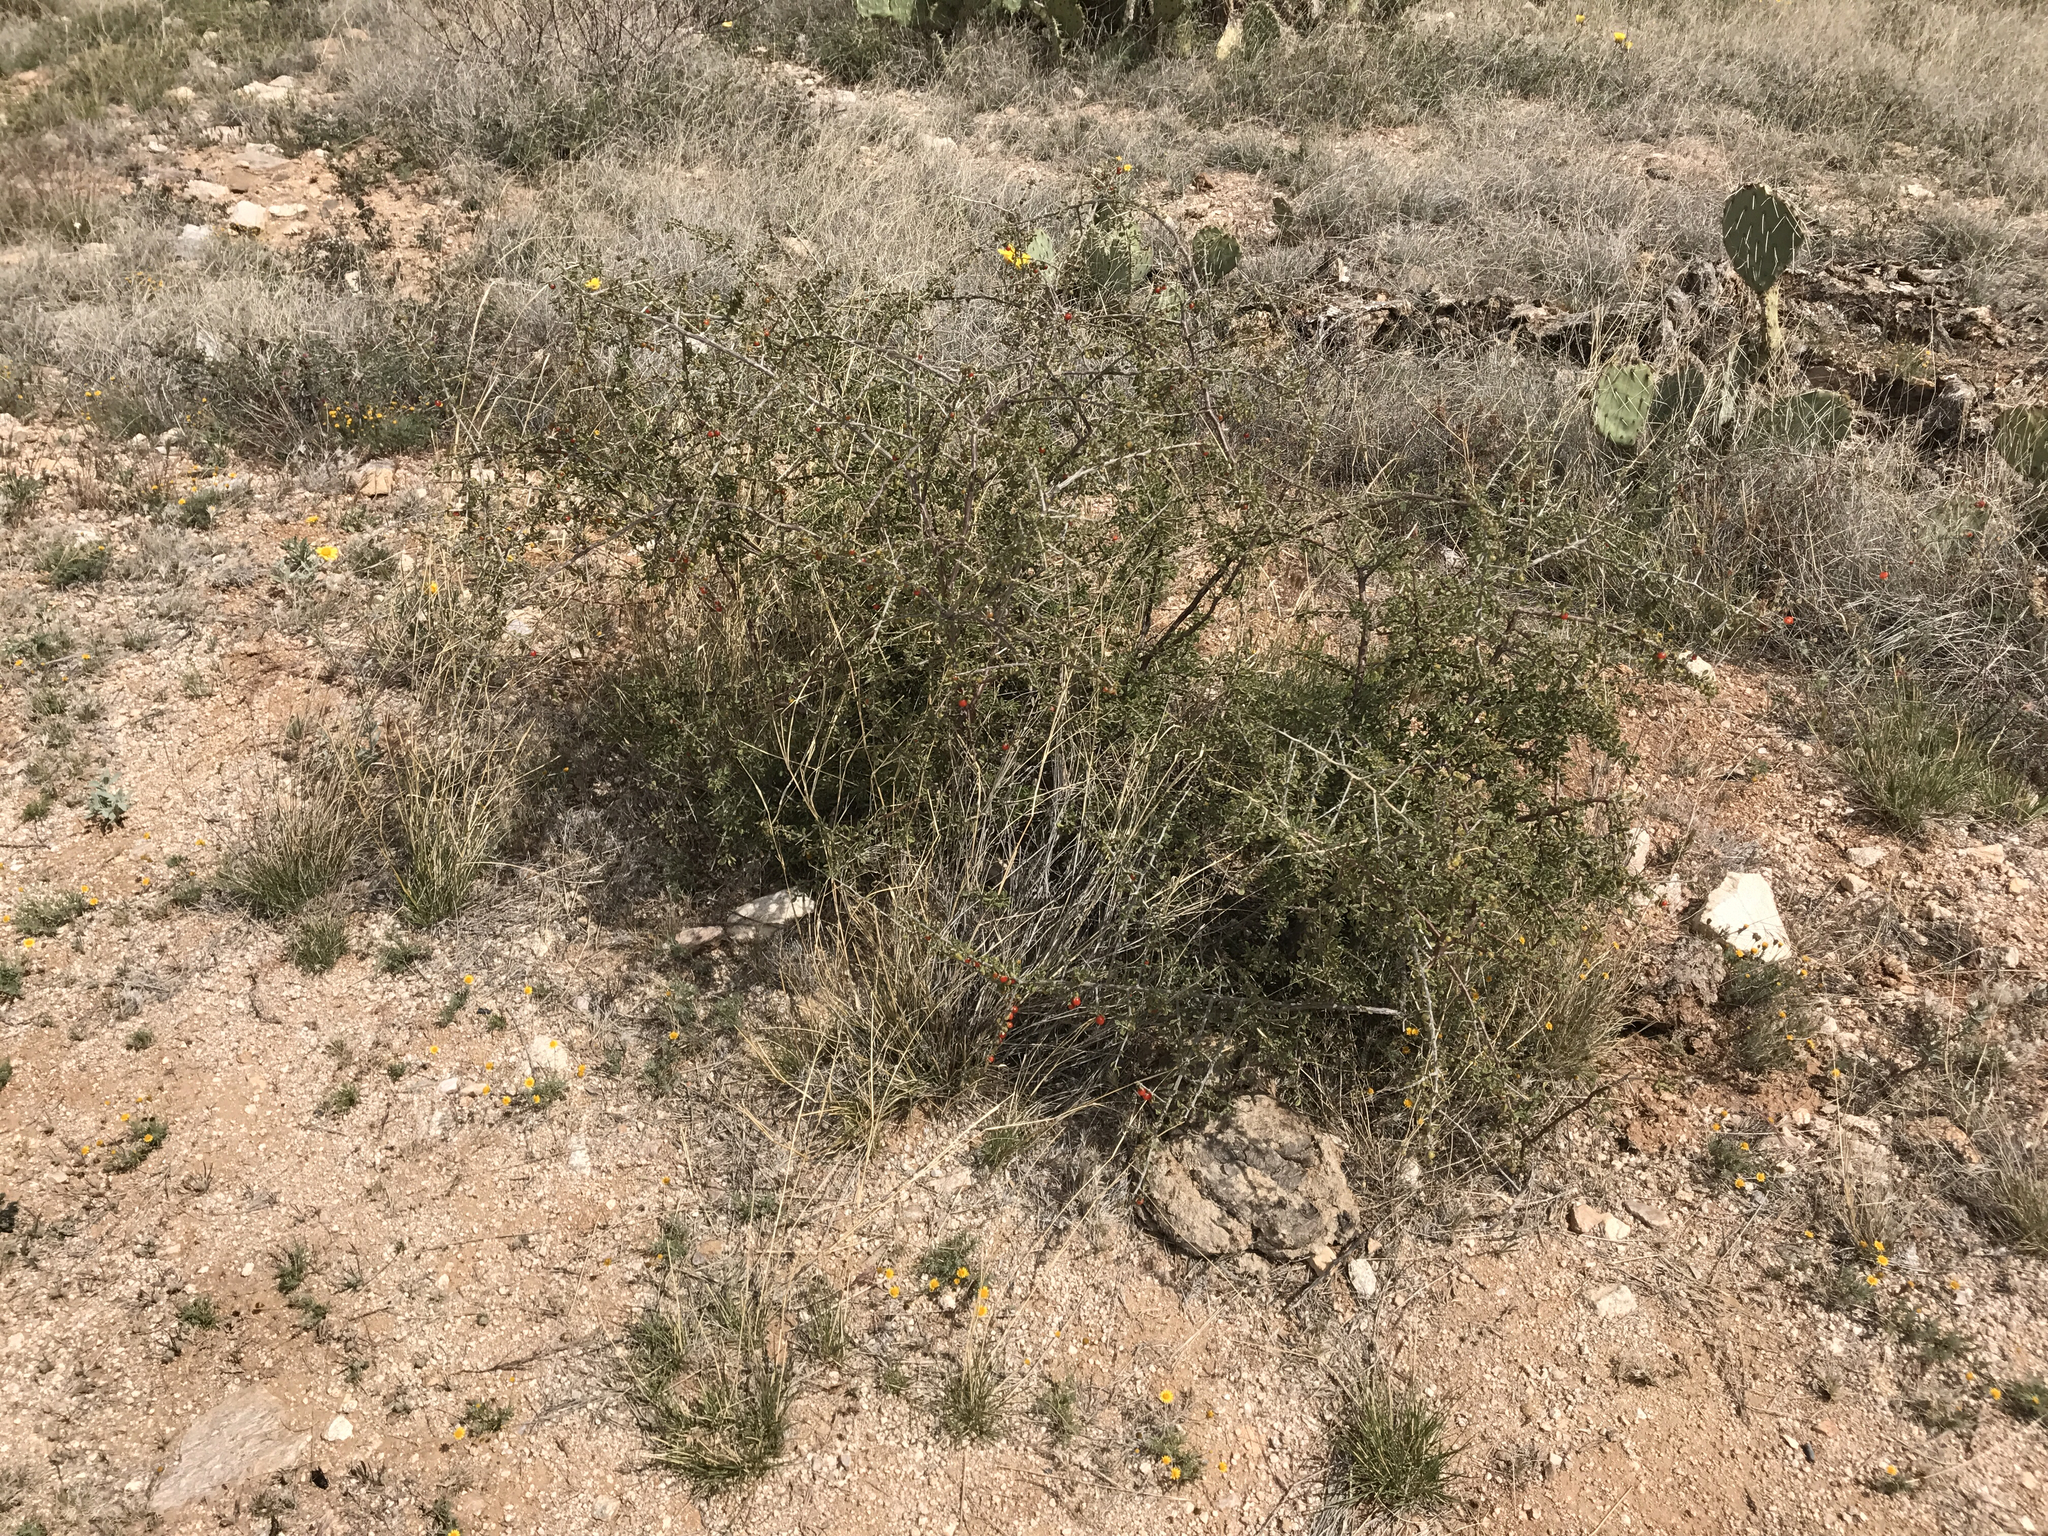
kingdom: Plantae
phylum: Tracheophyta
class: Magnoliopsida
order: Solanales
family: Solanaceae
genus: Lycium
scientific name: Lycium andersonii
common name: Water-jacket
